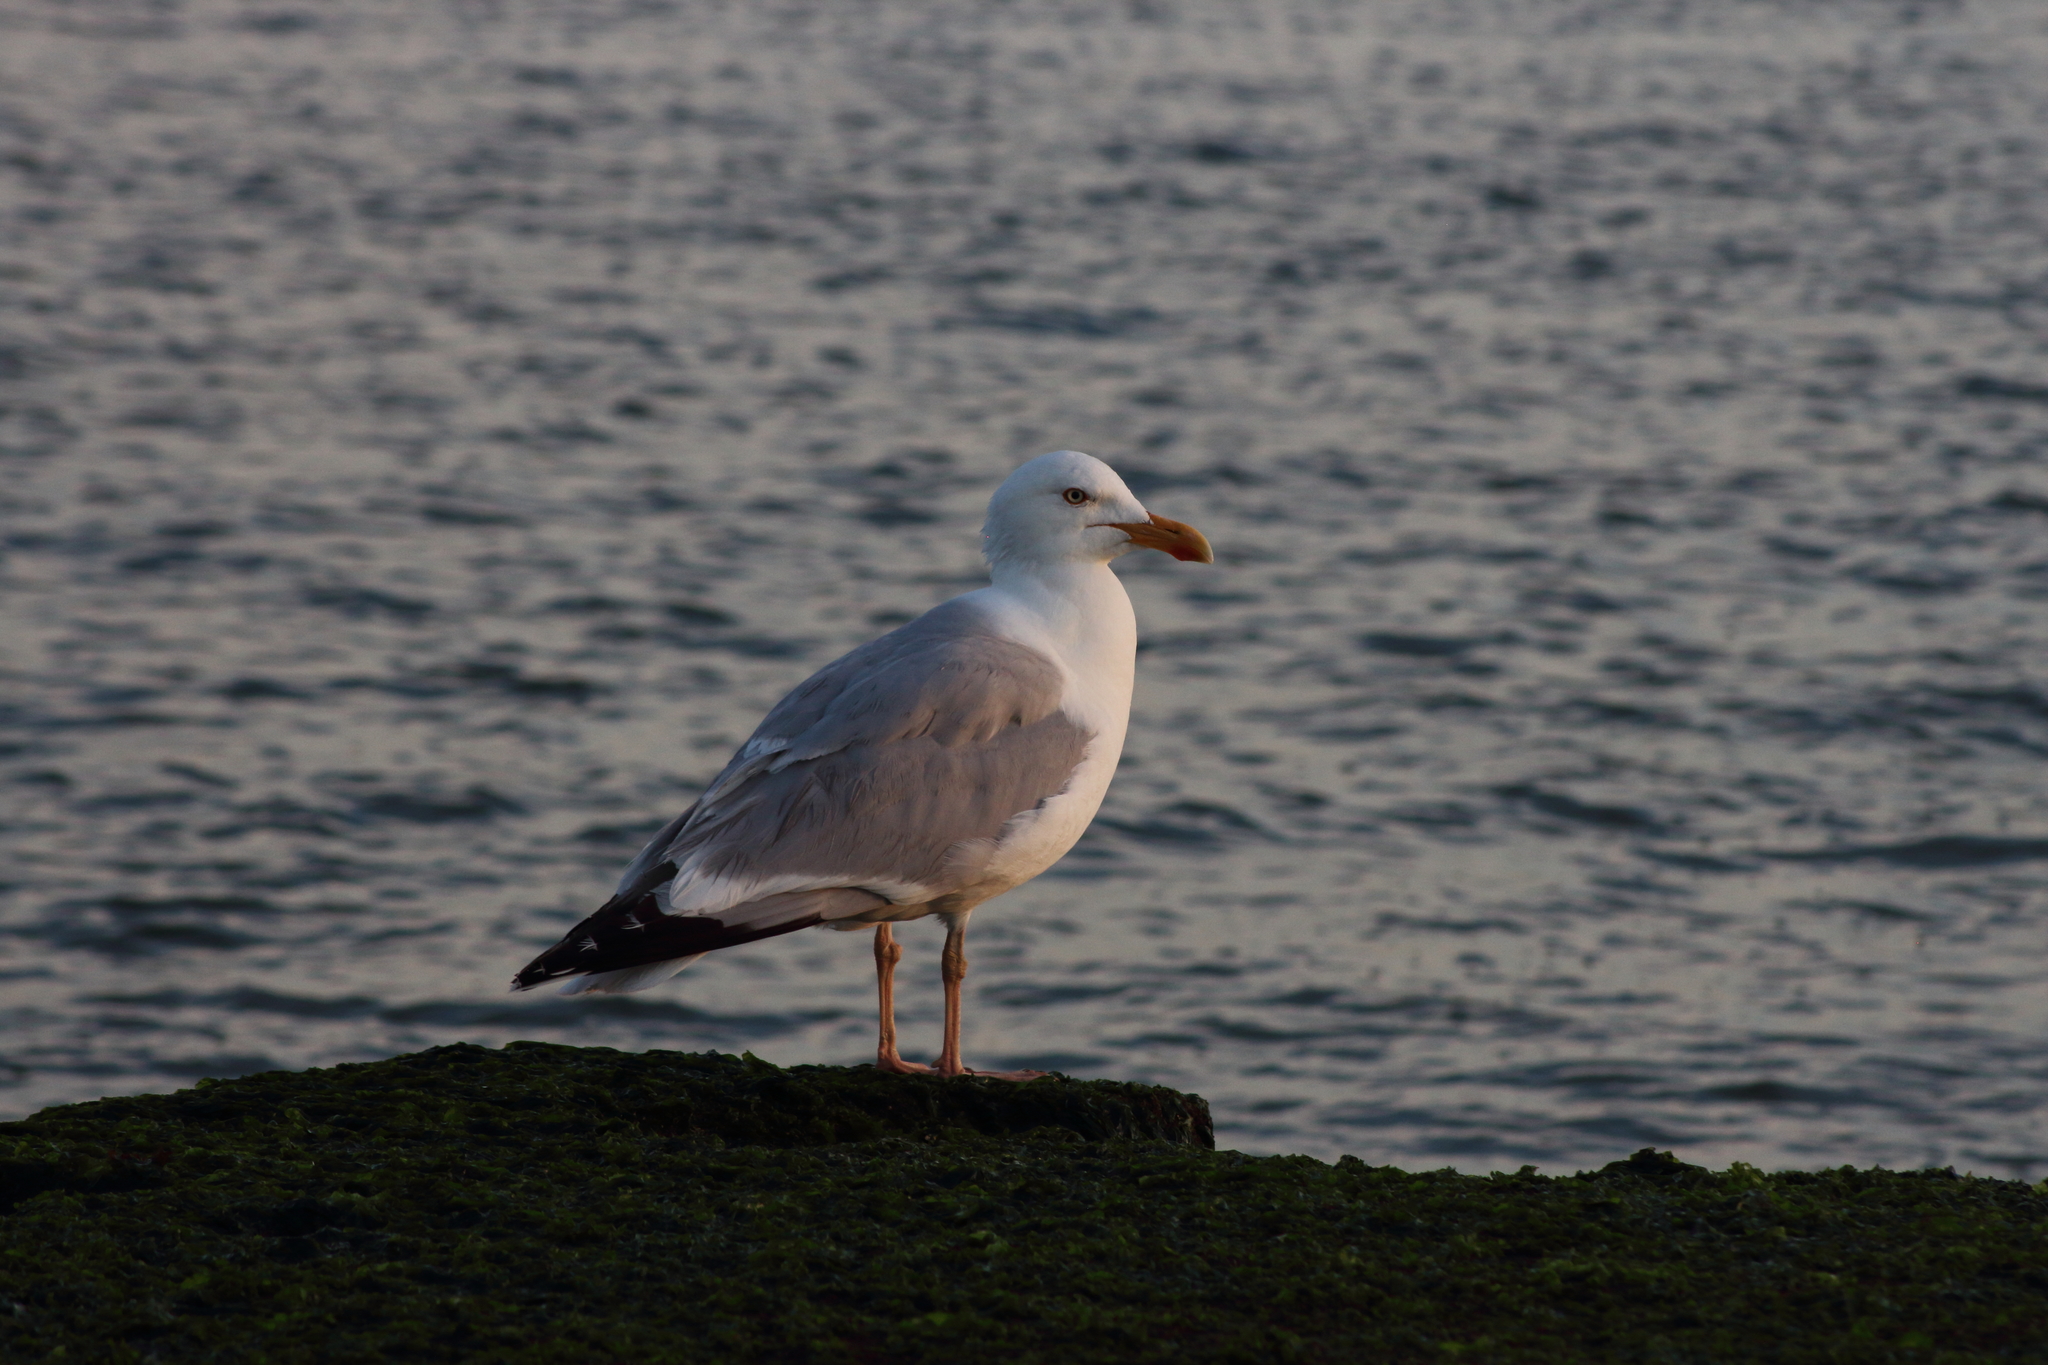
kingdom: Animalia
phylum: Chordata
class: Aves
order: Charadriiformes
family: Laridae
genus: Larus
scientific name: Larus argentatus
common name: Herring gull
